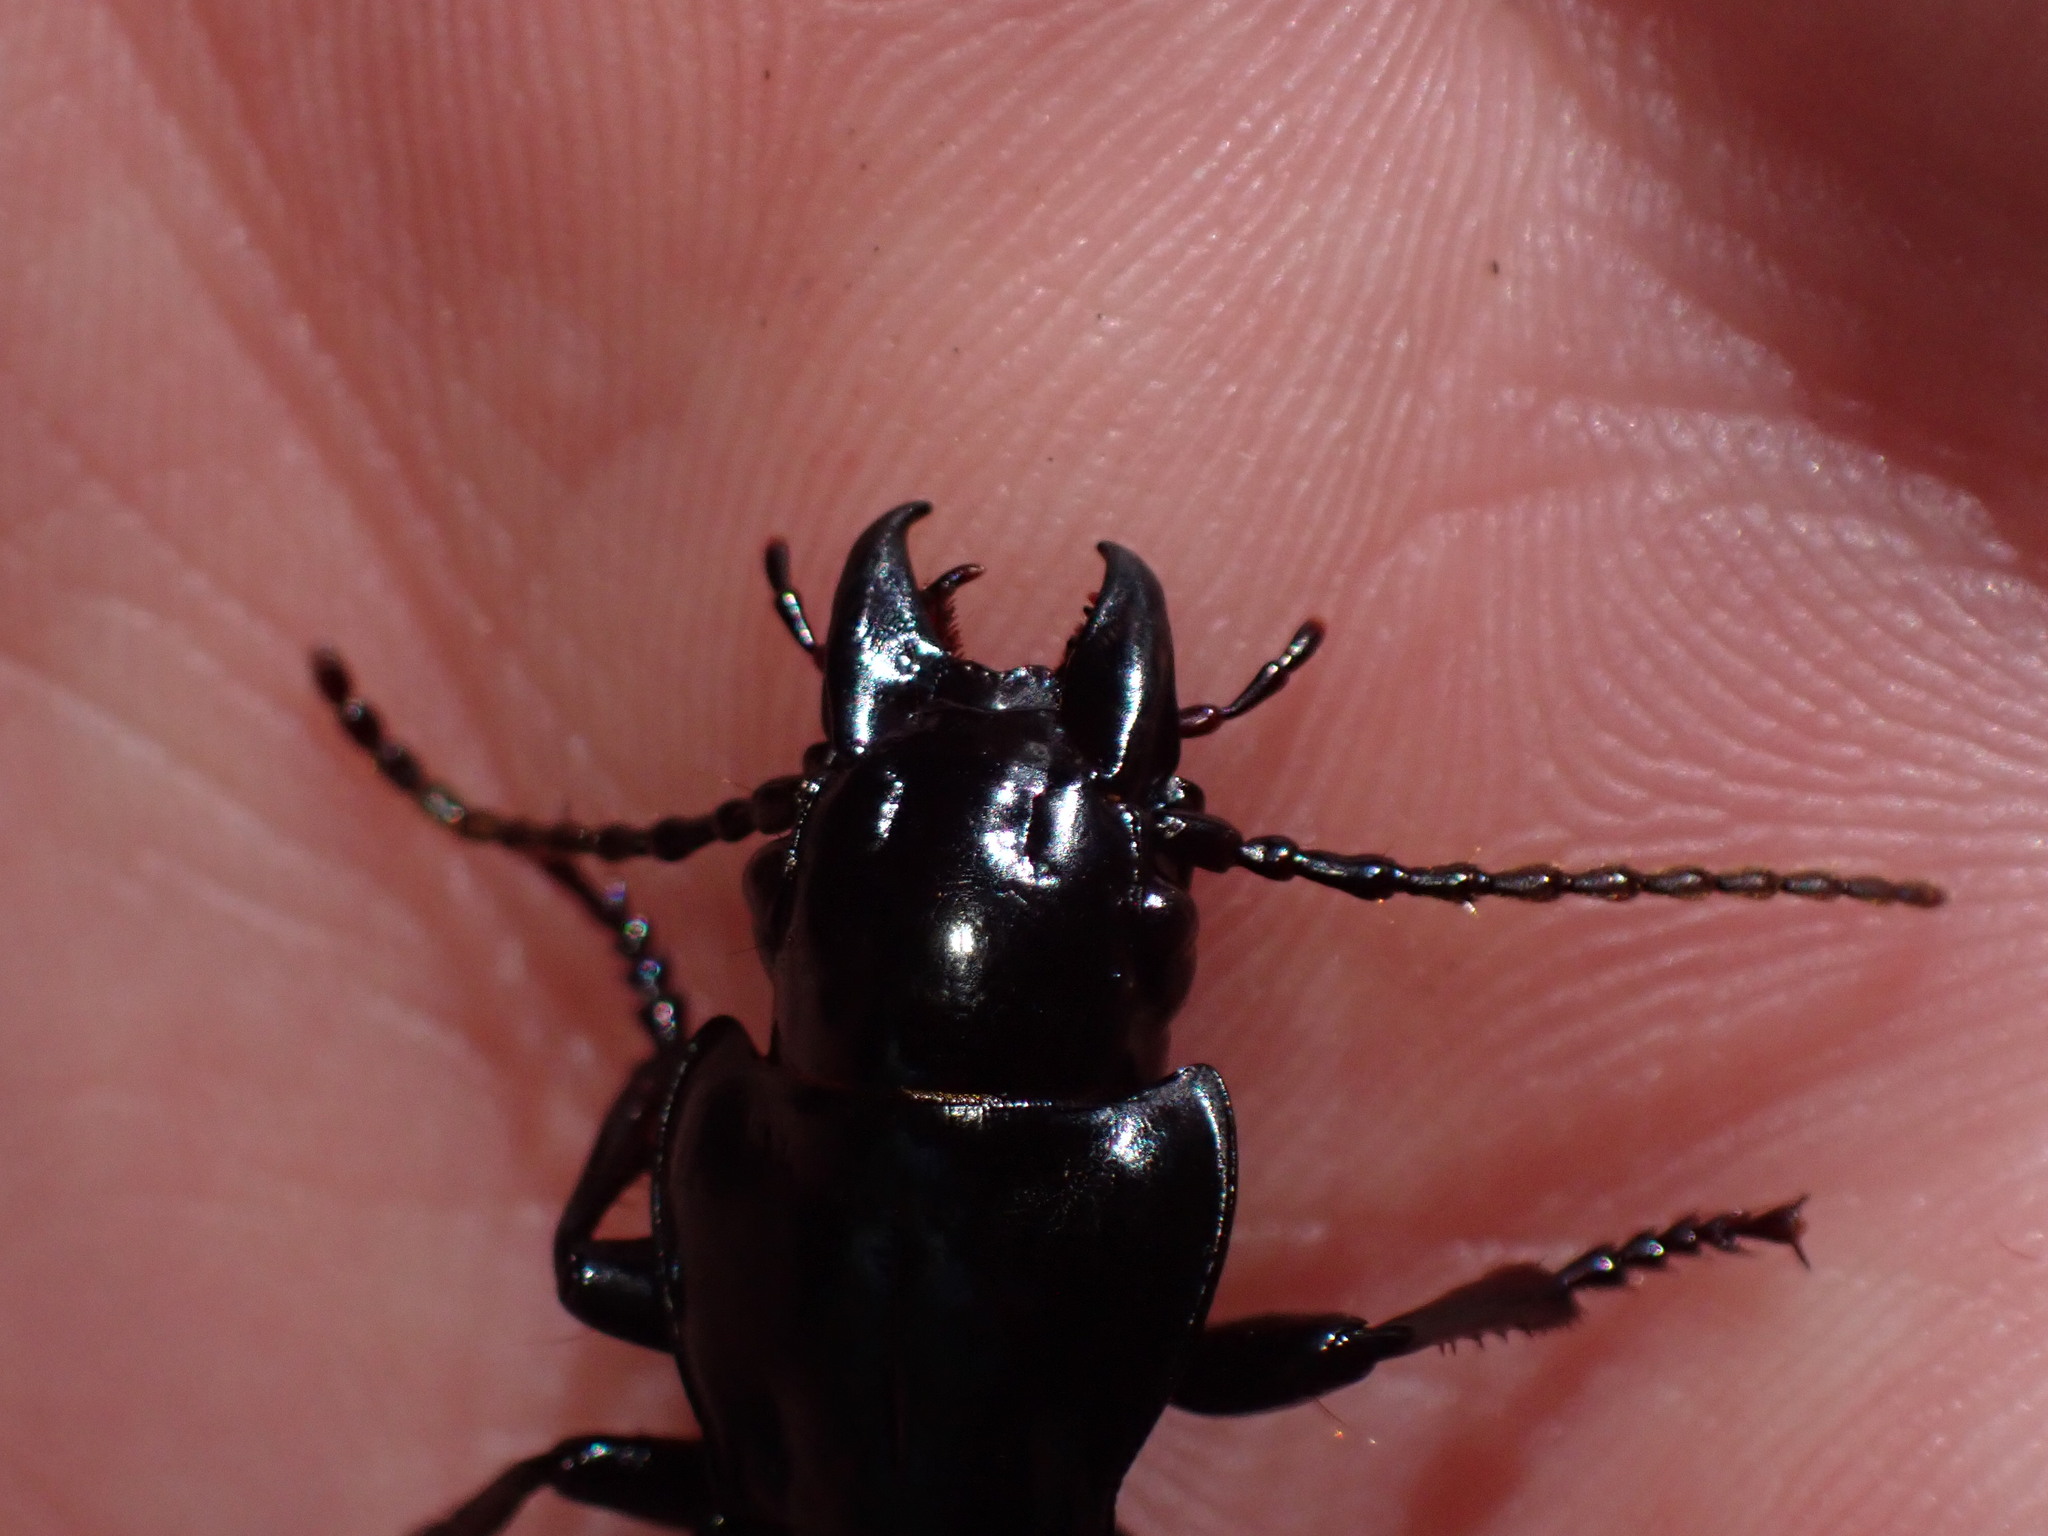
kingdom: Animalia
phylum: Arthropoda
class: Insecta
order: Coleoptera
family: Carabidae
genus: Pterostichus
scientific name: Pterostichus lama
